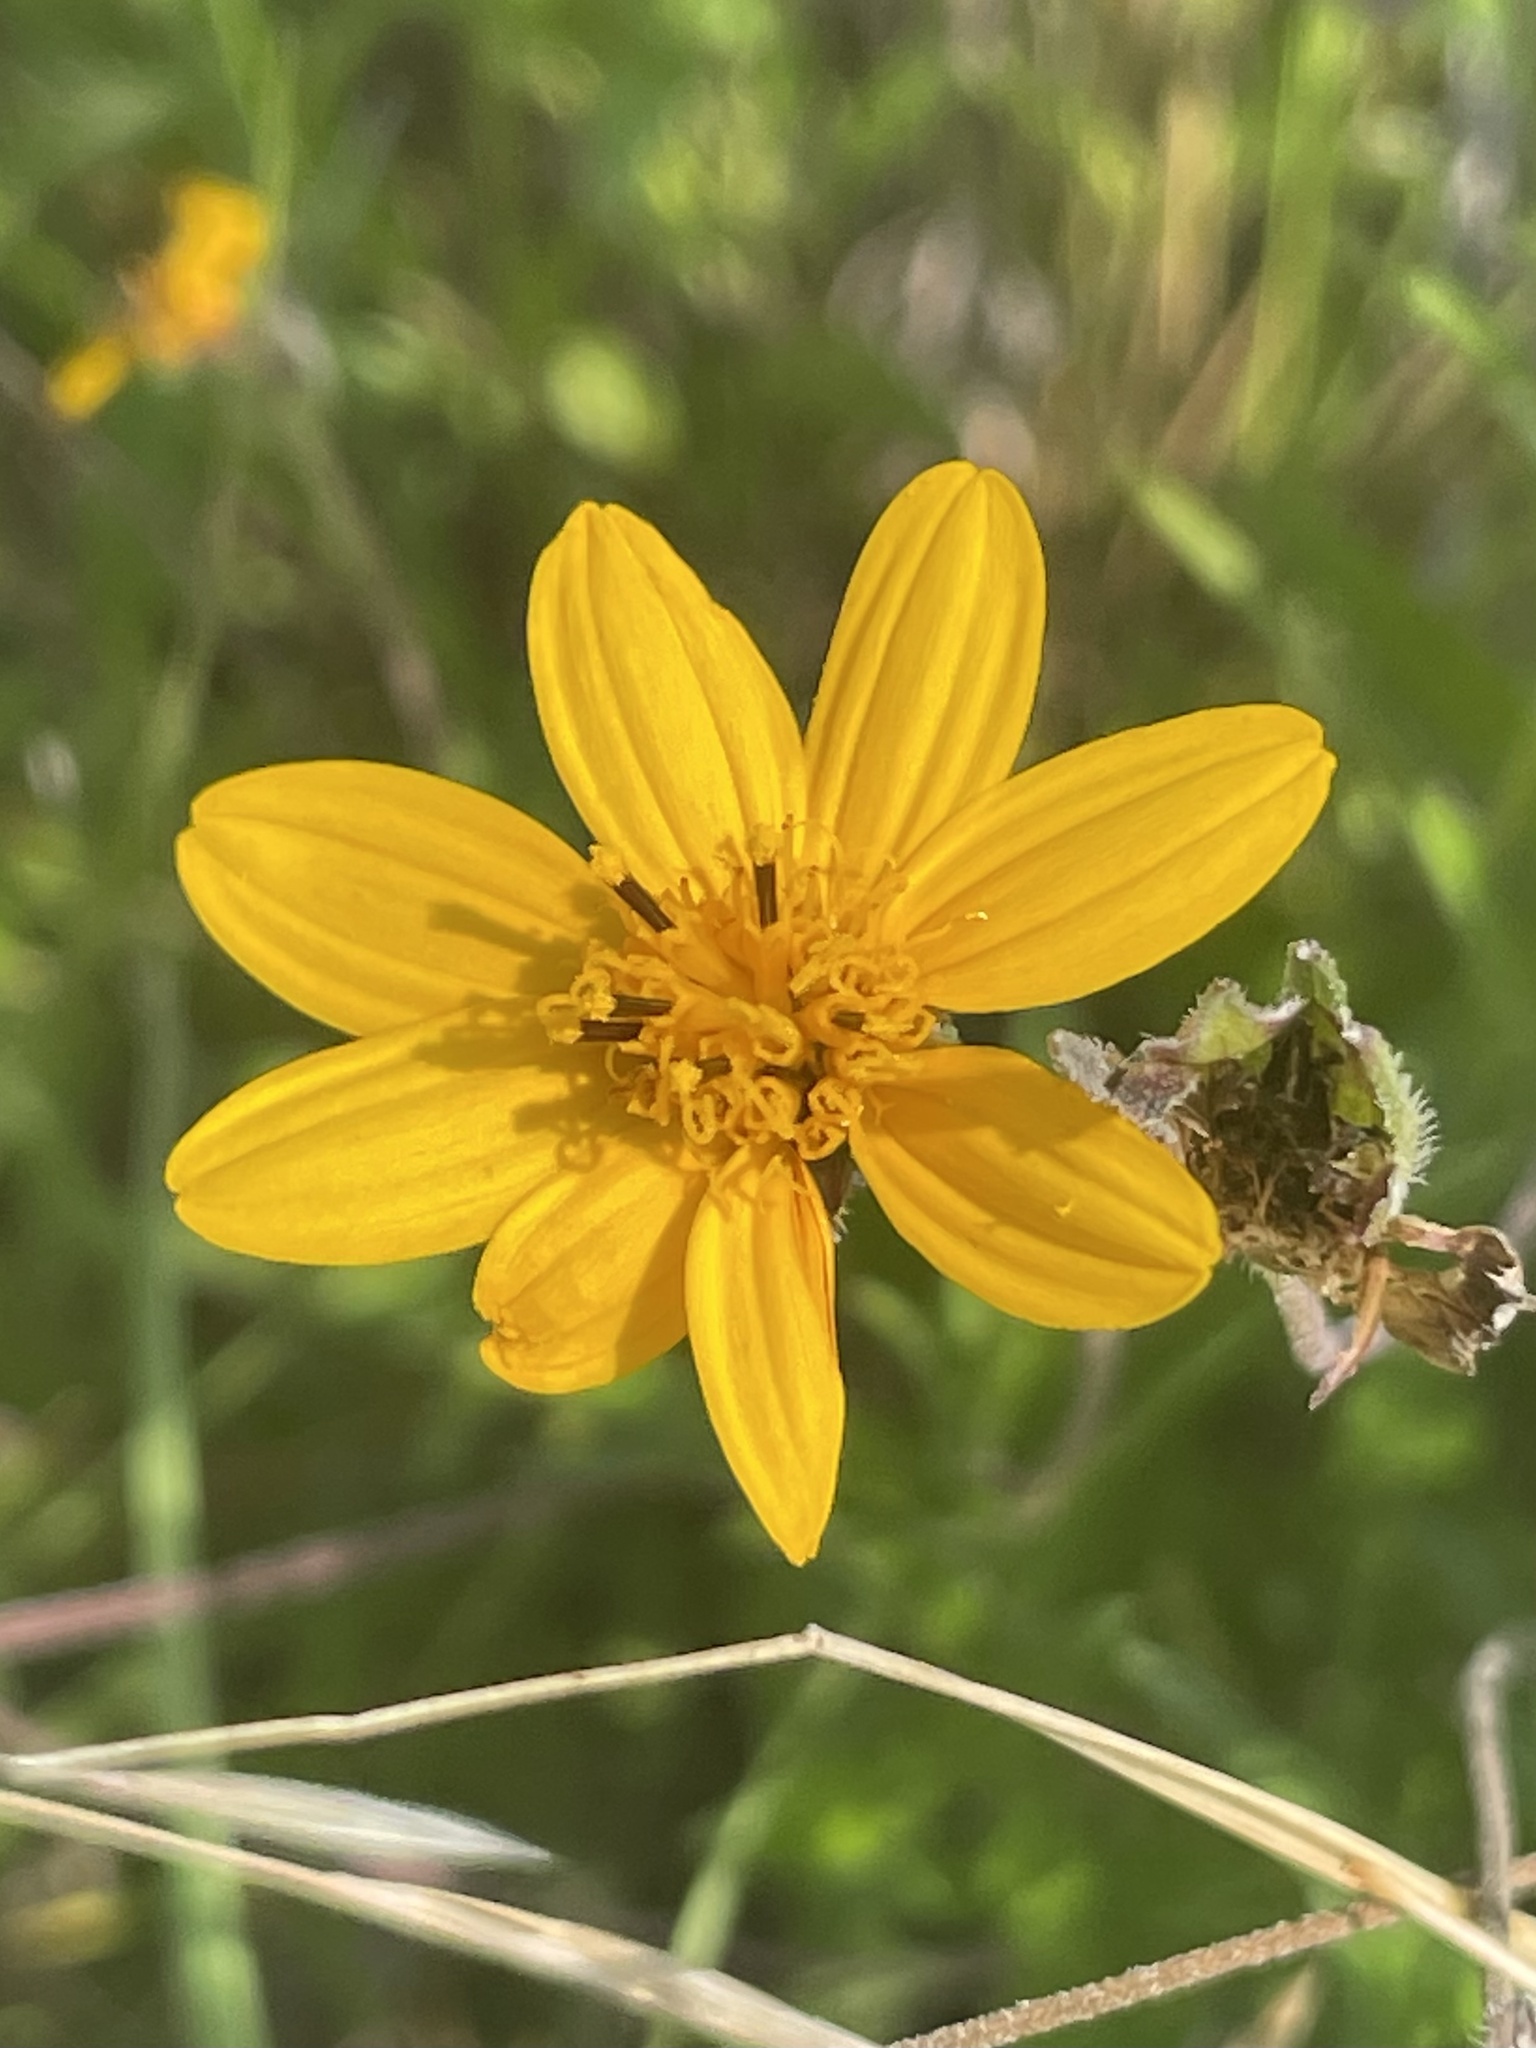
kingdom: Plantae
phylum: Tracheophyta
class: Magnoliopsida
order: Asterales
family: Asteraceae
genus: Wedelia
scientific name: Wedelia acapulcensis
